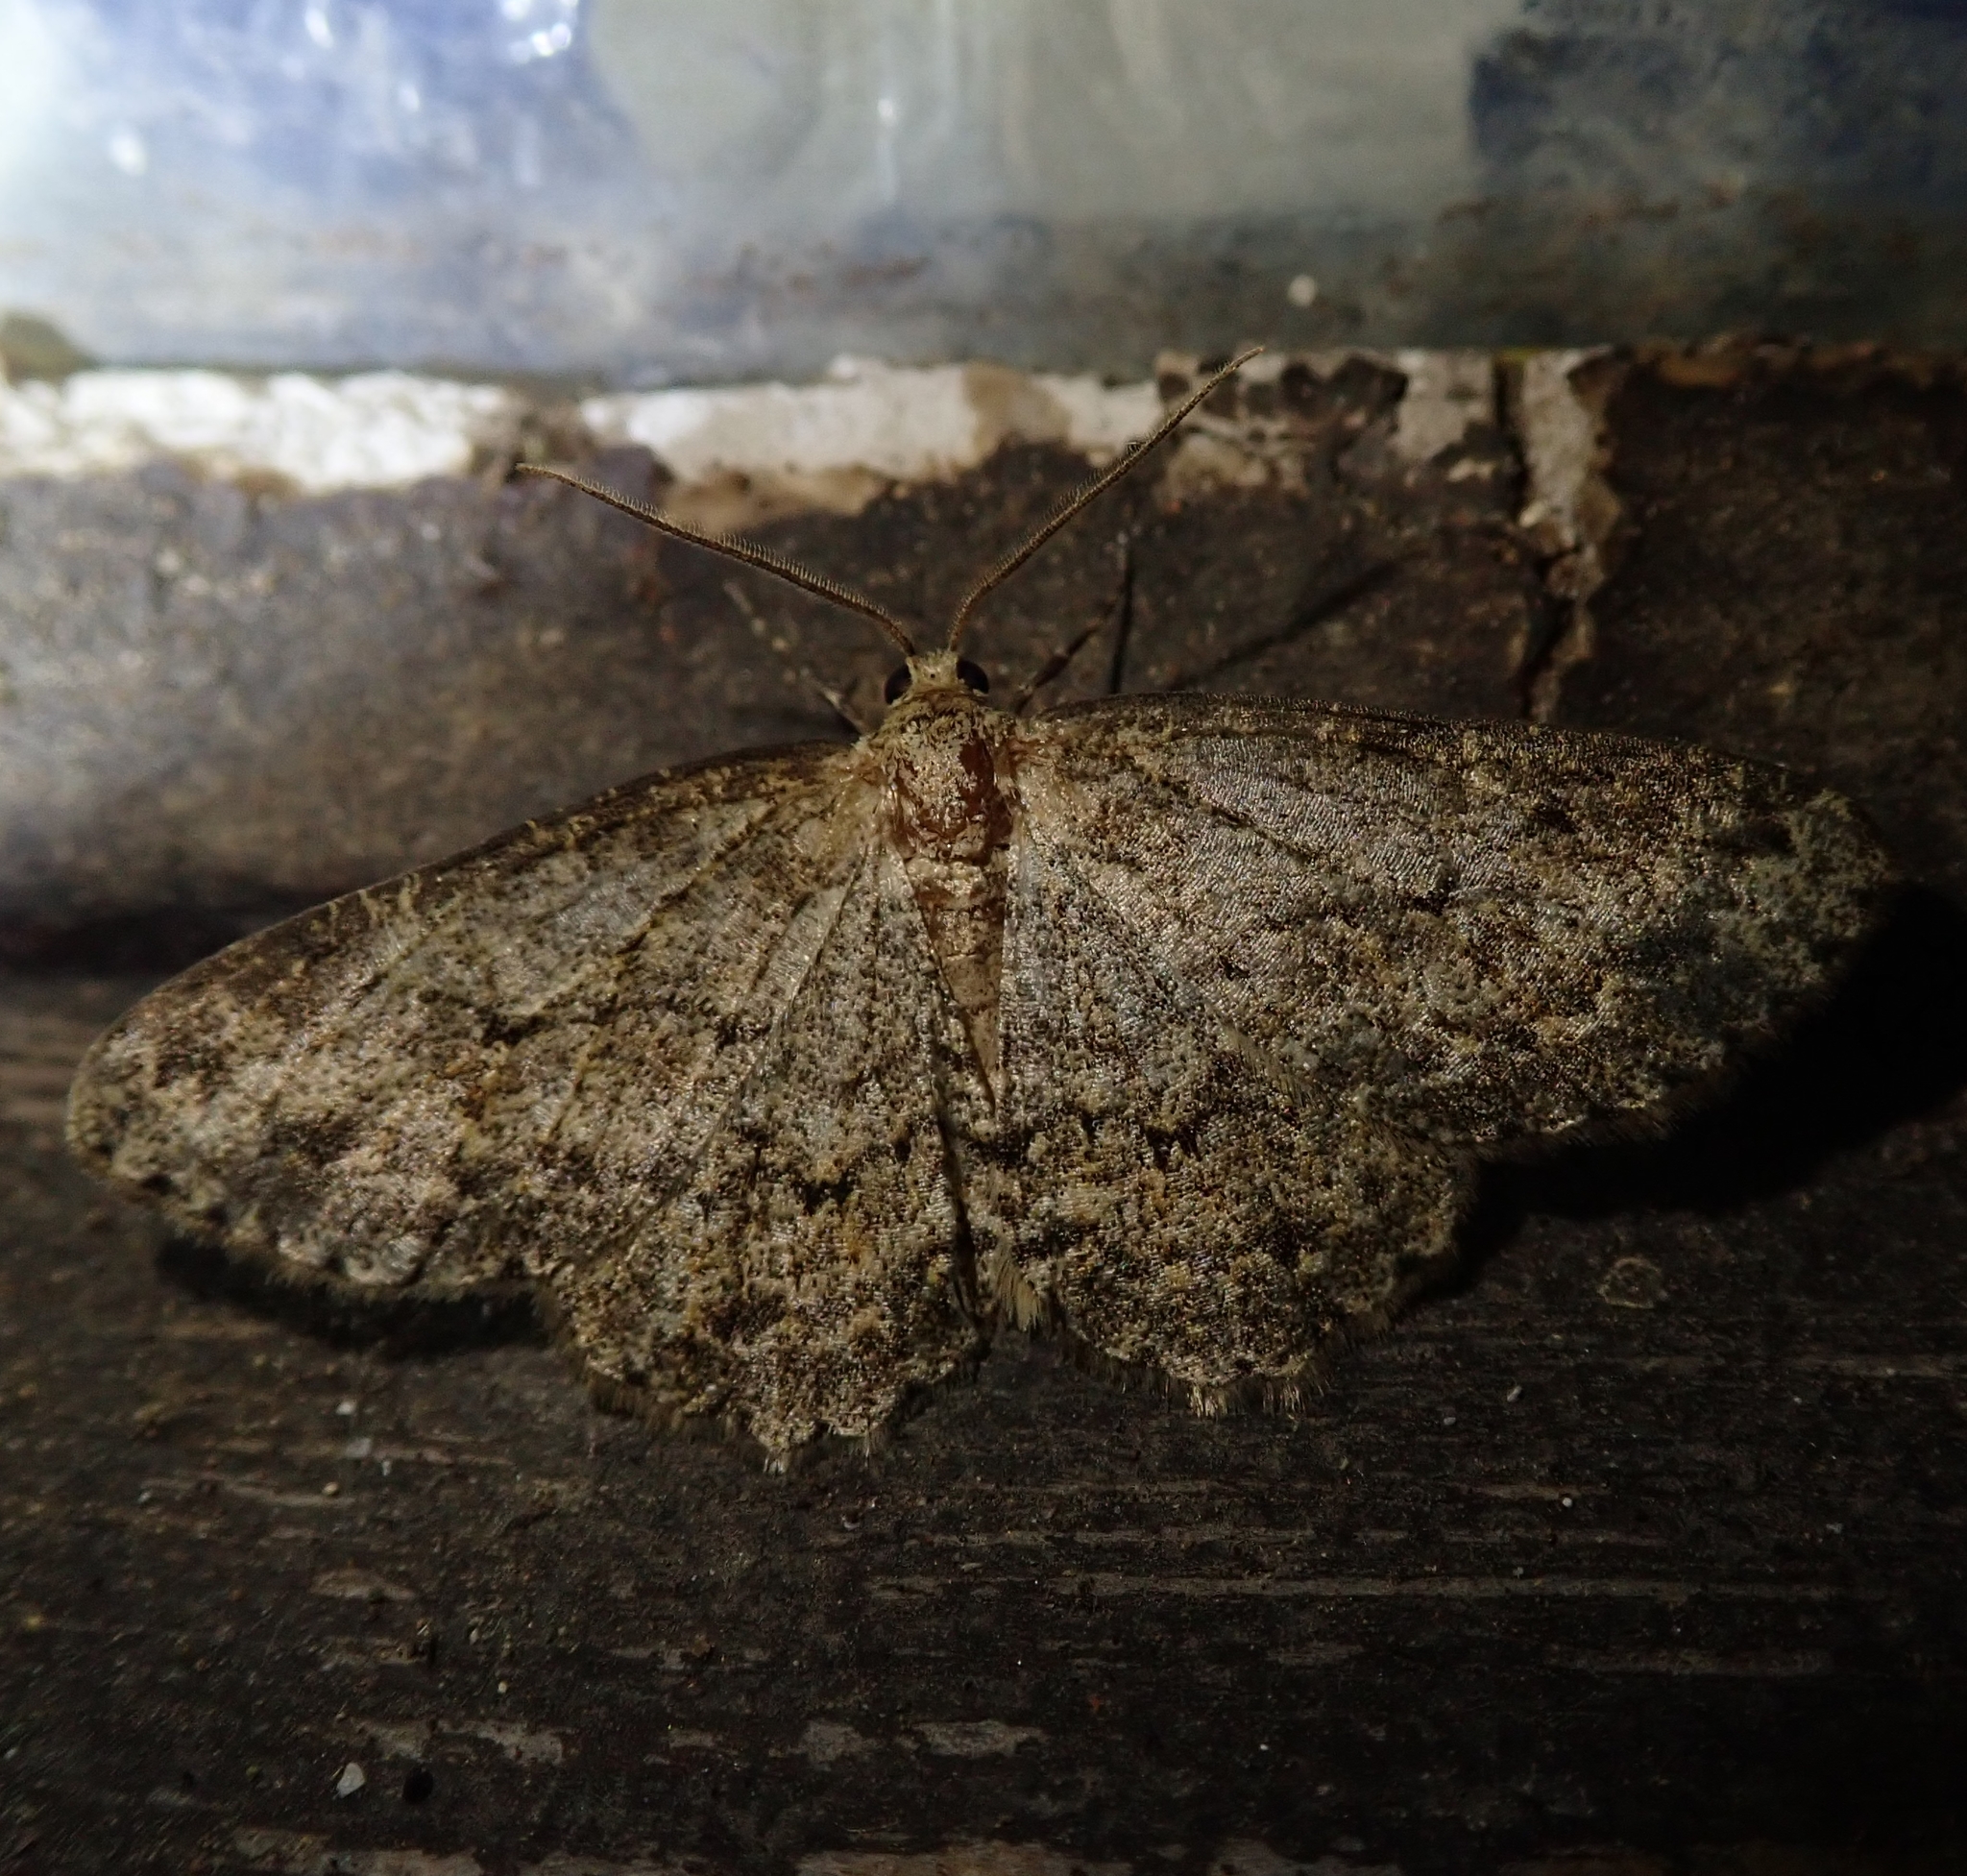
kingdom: Animalia
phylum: Arthropoda
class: Insecta
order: Lepidoptera
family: Geometridae
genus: Hypomecis
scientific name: Hypomecis punctinalis
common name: Pale oak beauty
